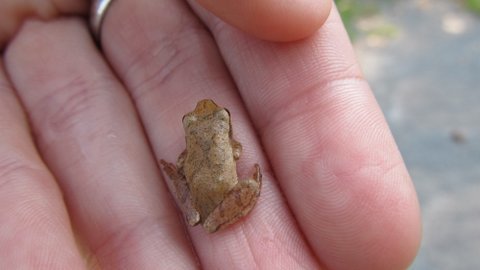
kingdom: Animalia
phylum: Chordata
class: Amphibia
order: Anura
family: Hylidae
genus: Pseudacris
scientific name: Pseudacris crucifer
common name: Spring peeper
